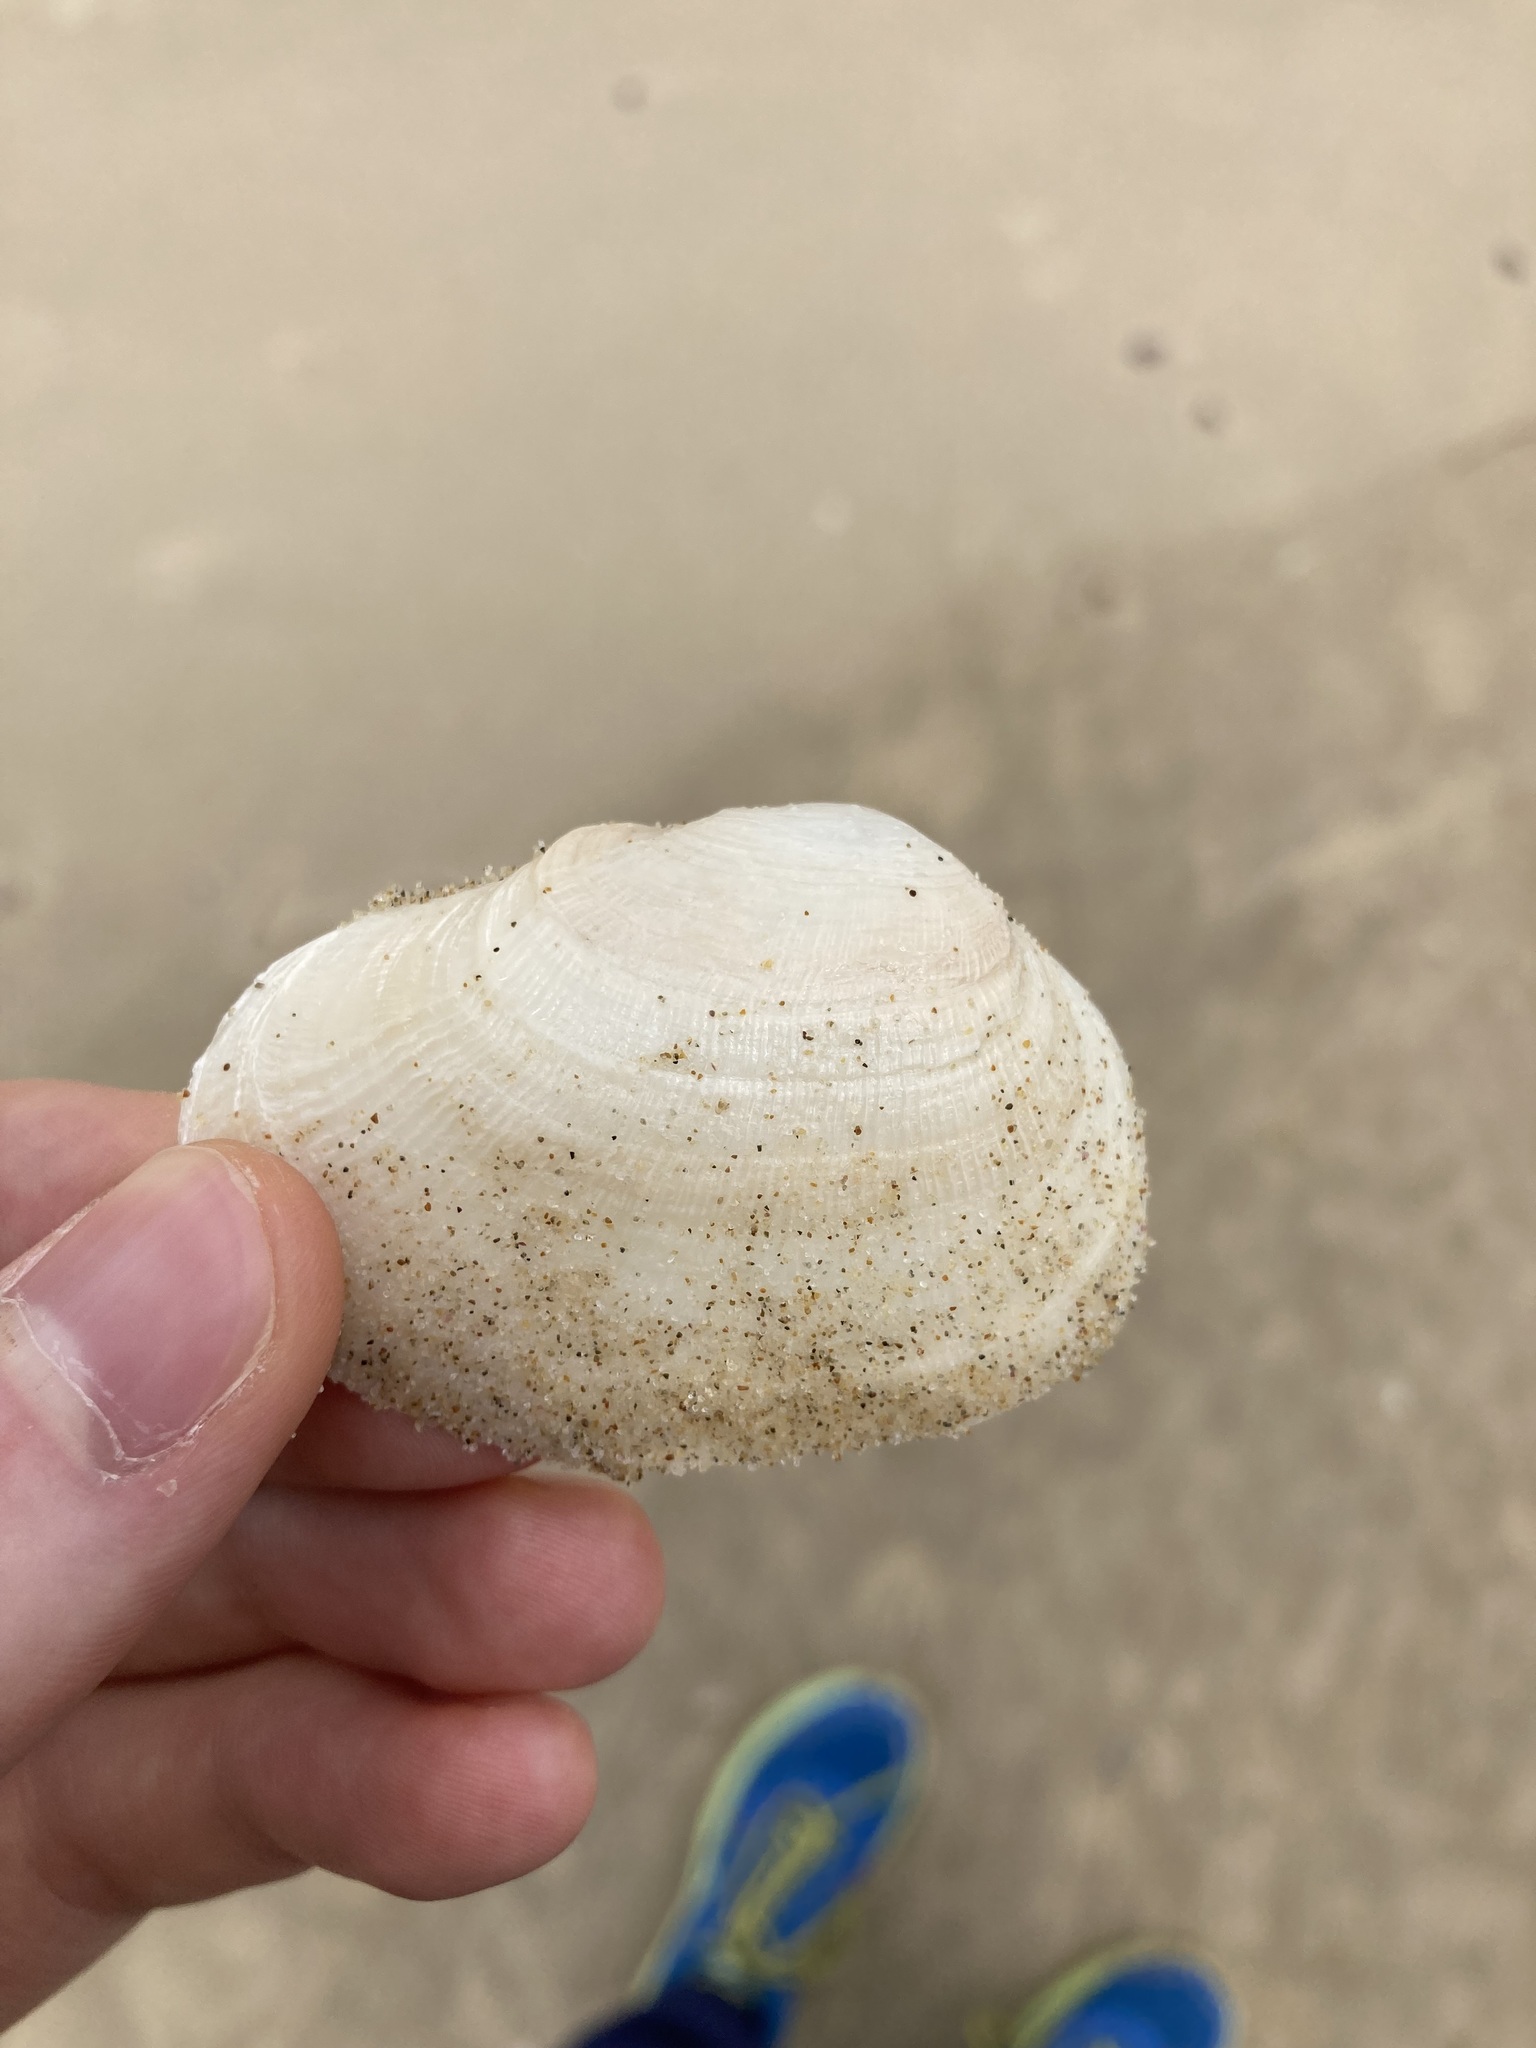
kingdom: Animalia
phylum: Mollusca
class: Bivalvia
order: Venerida
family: Mactridae
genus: Meropesta
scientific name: Meropesta nicobarica
